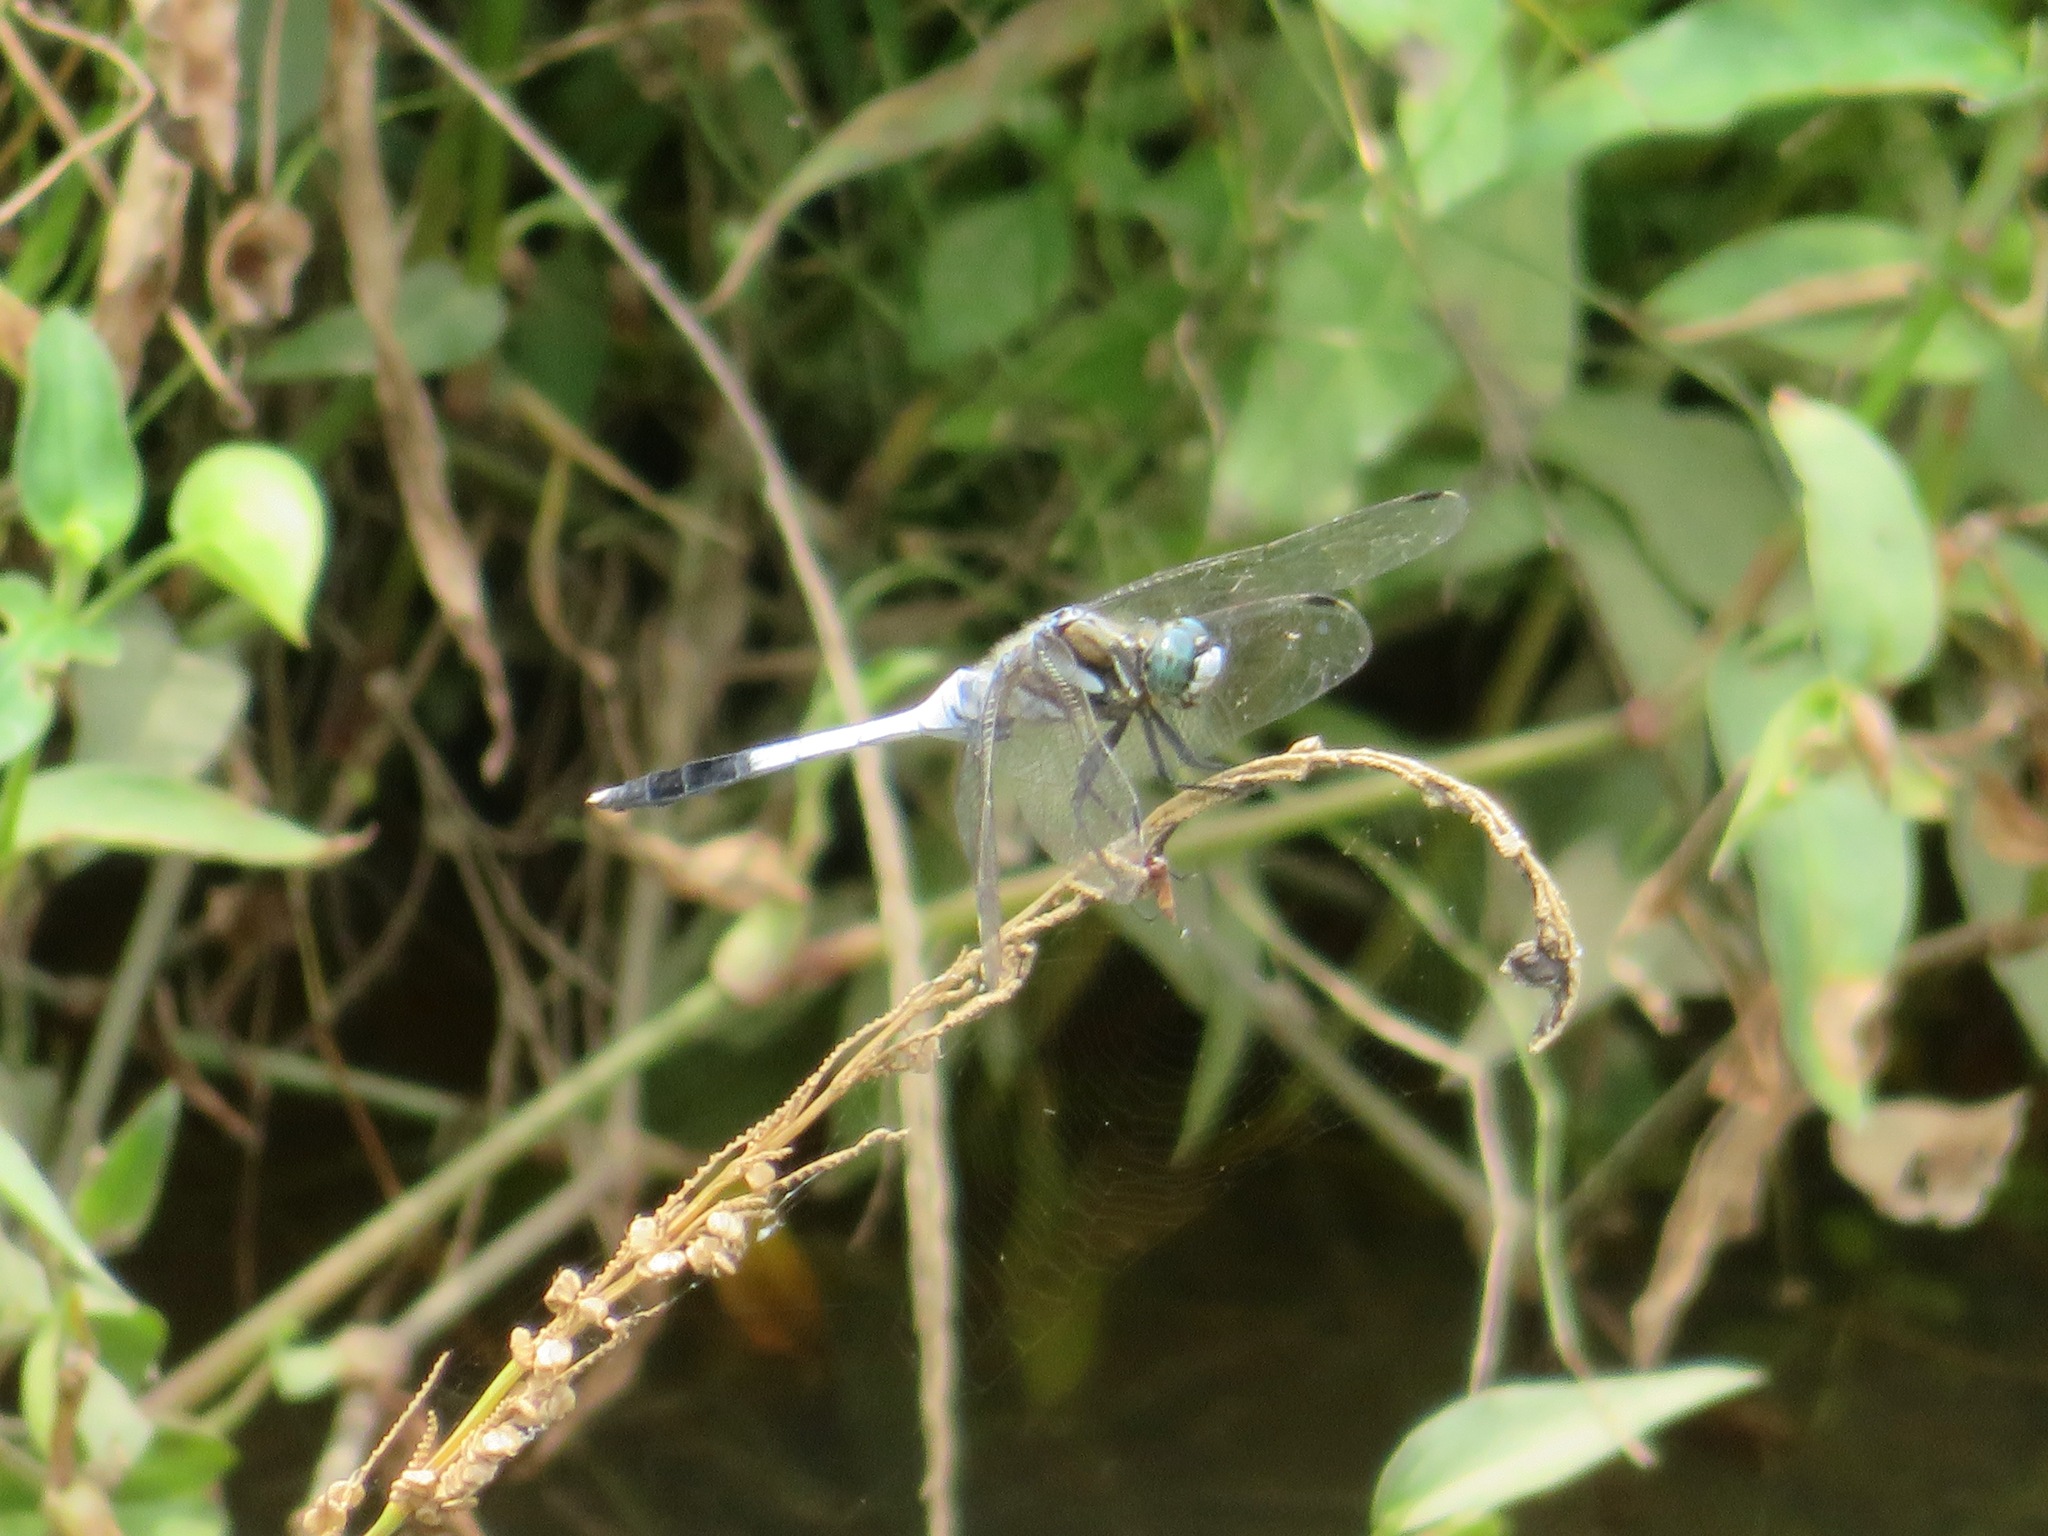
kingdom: Animalia
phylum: Arthropoda
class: Insecta
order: Odonata
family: Libellulidae
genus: Orthetrum
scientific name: Orthetrum albistylum
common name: White-tailed skimmer
